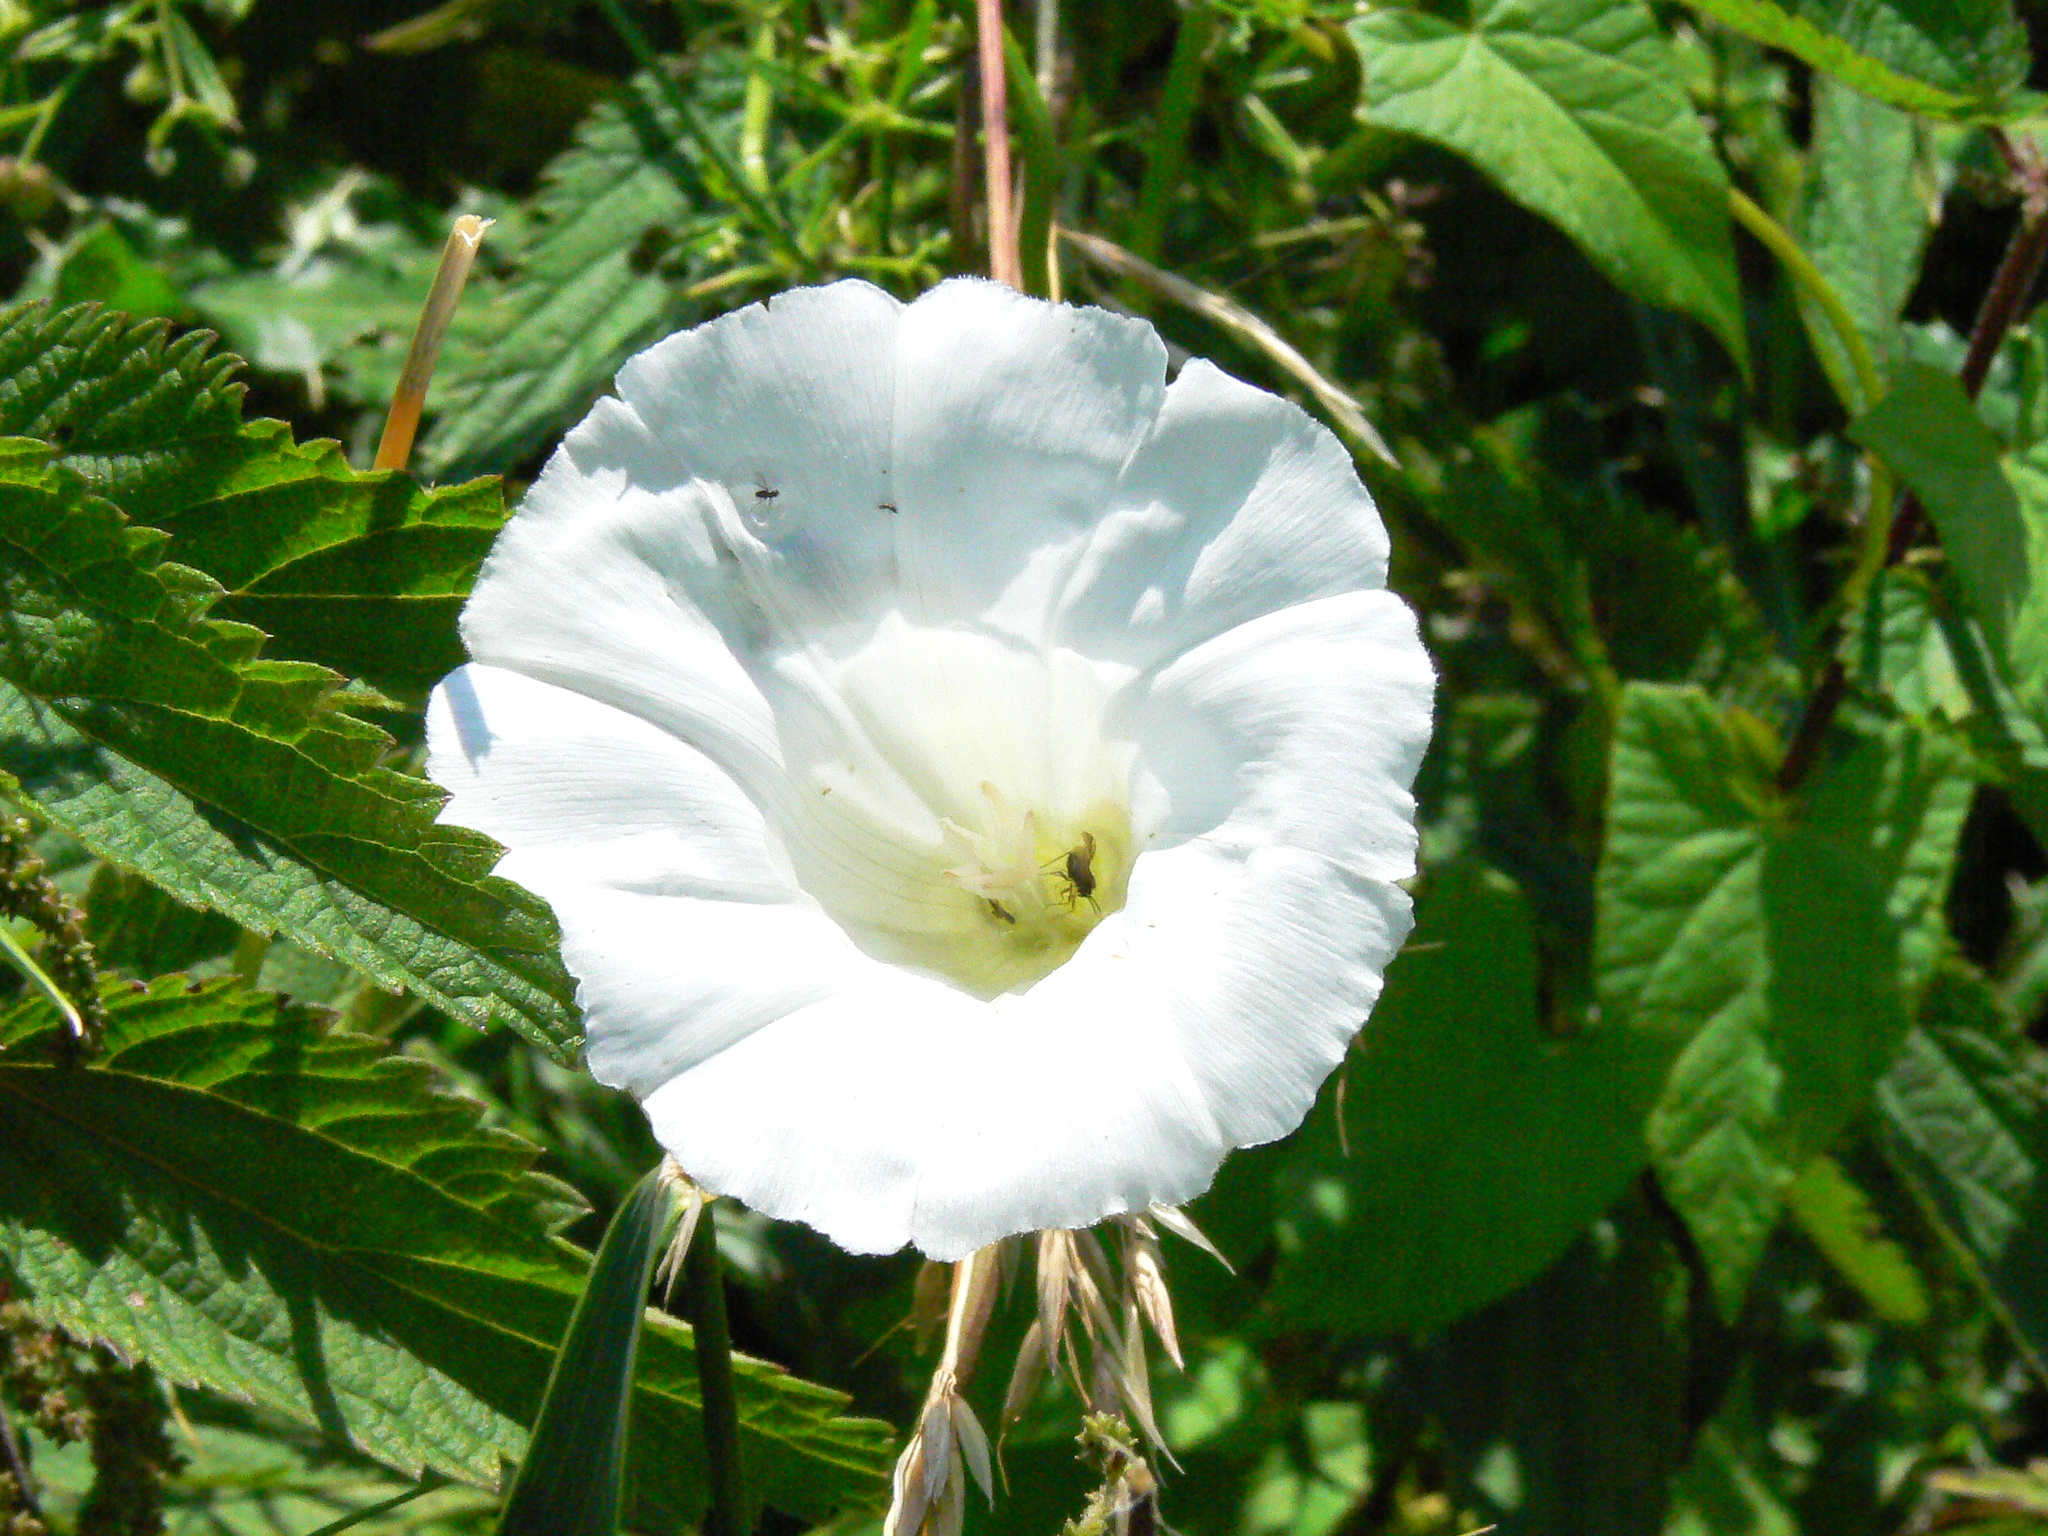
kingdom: Plantae
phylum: Tracheophyta
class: Magnoliopsida
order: Solanales
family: Convolvulaceae
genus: Calystegia
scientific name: Calystegia sepium
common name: Hedge bindweed
